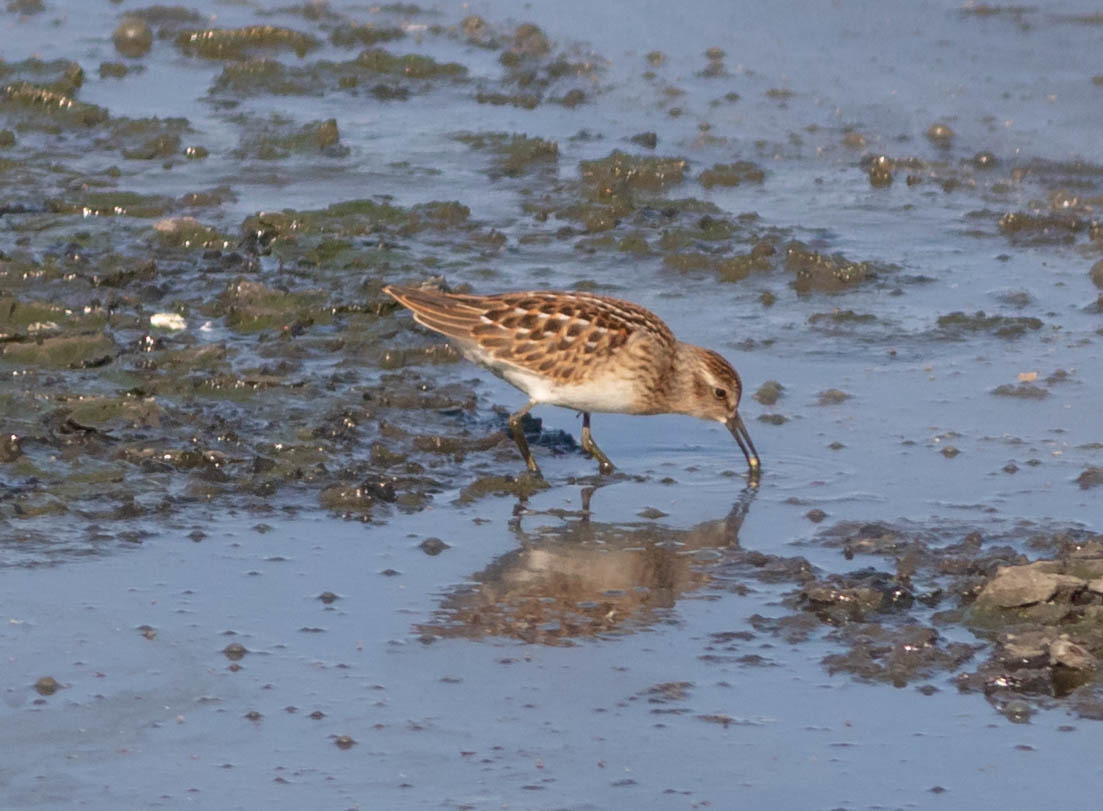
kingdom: Animalia
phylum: Chordata
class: Aves
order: Charadriiformes
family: Scolopacidae
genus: Calidris
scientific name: Calidris minutilla
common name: Least sandpiper
